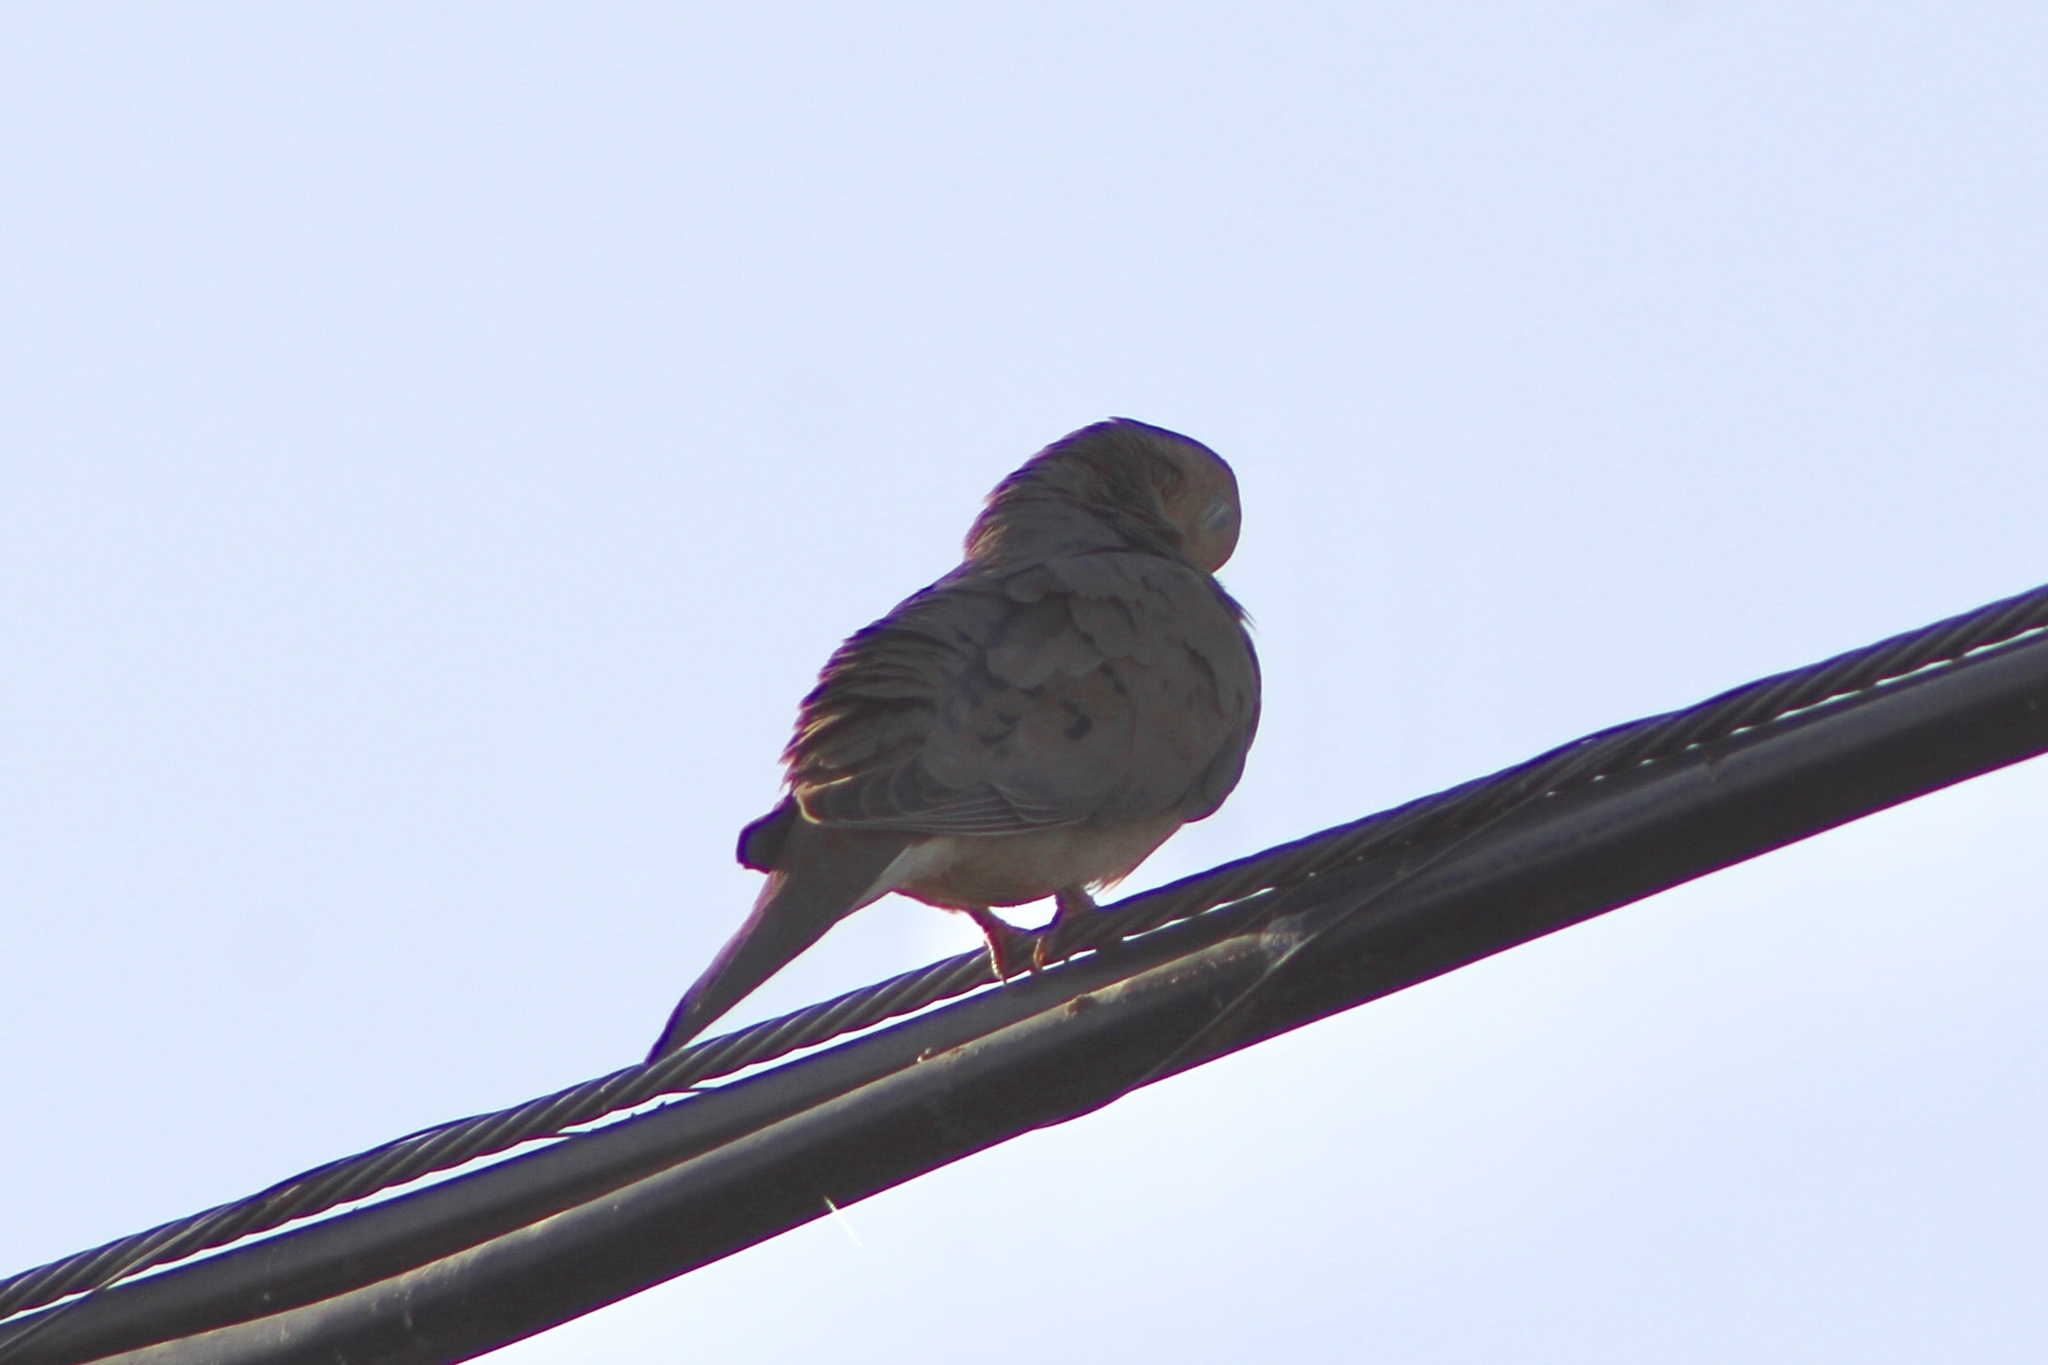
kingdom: Animalia
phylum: Chordata
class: Aves
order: Columbiformes
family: Columbidae
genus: Zenaida
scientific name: Zenaida macroura
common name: Mourning dove
